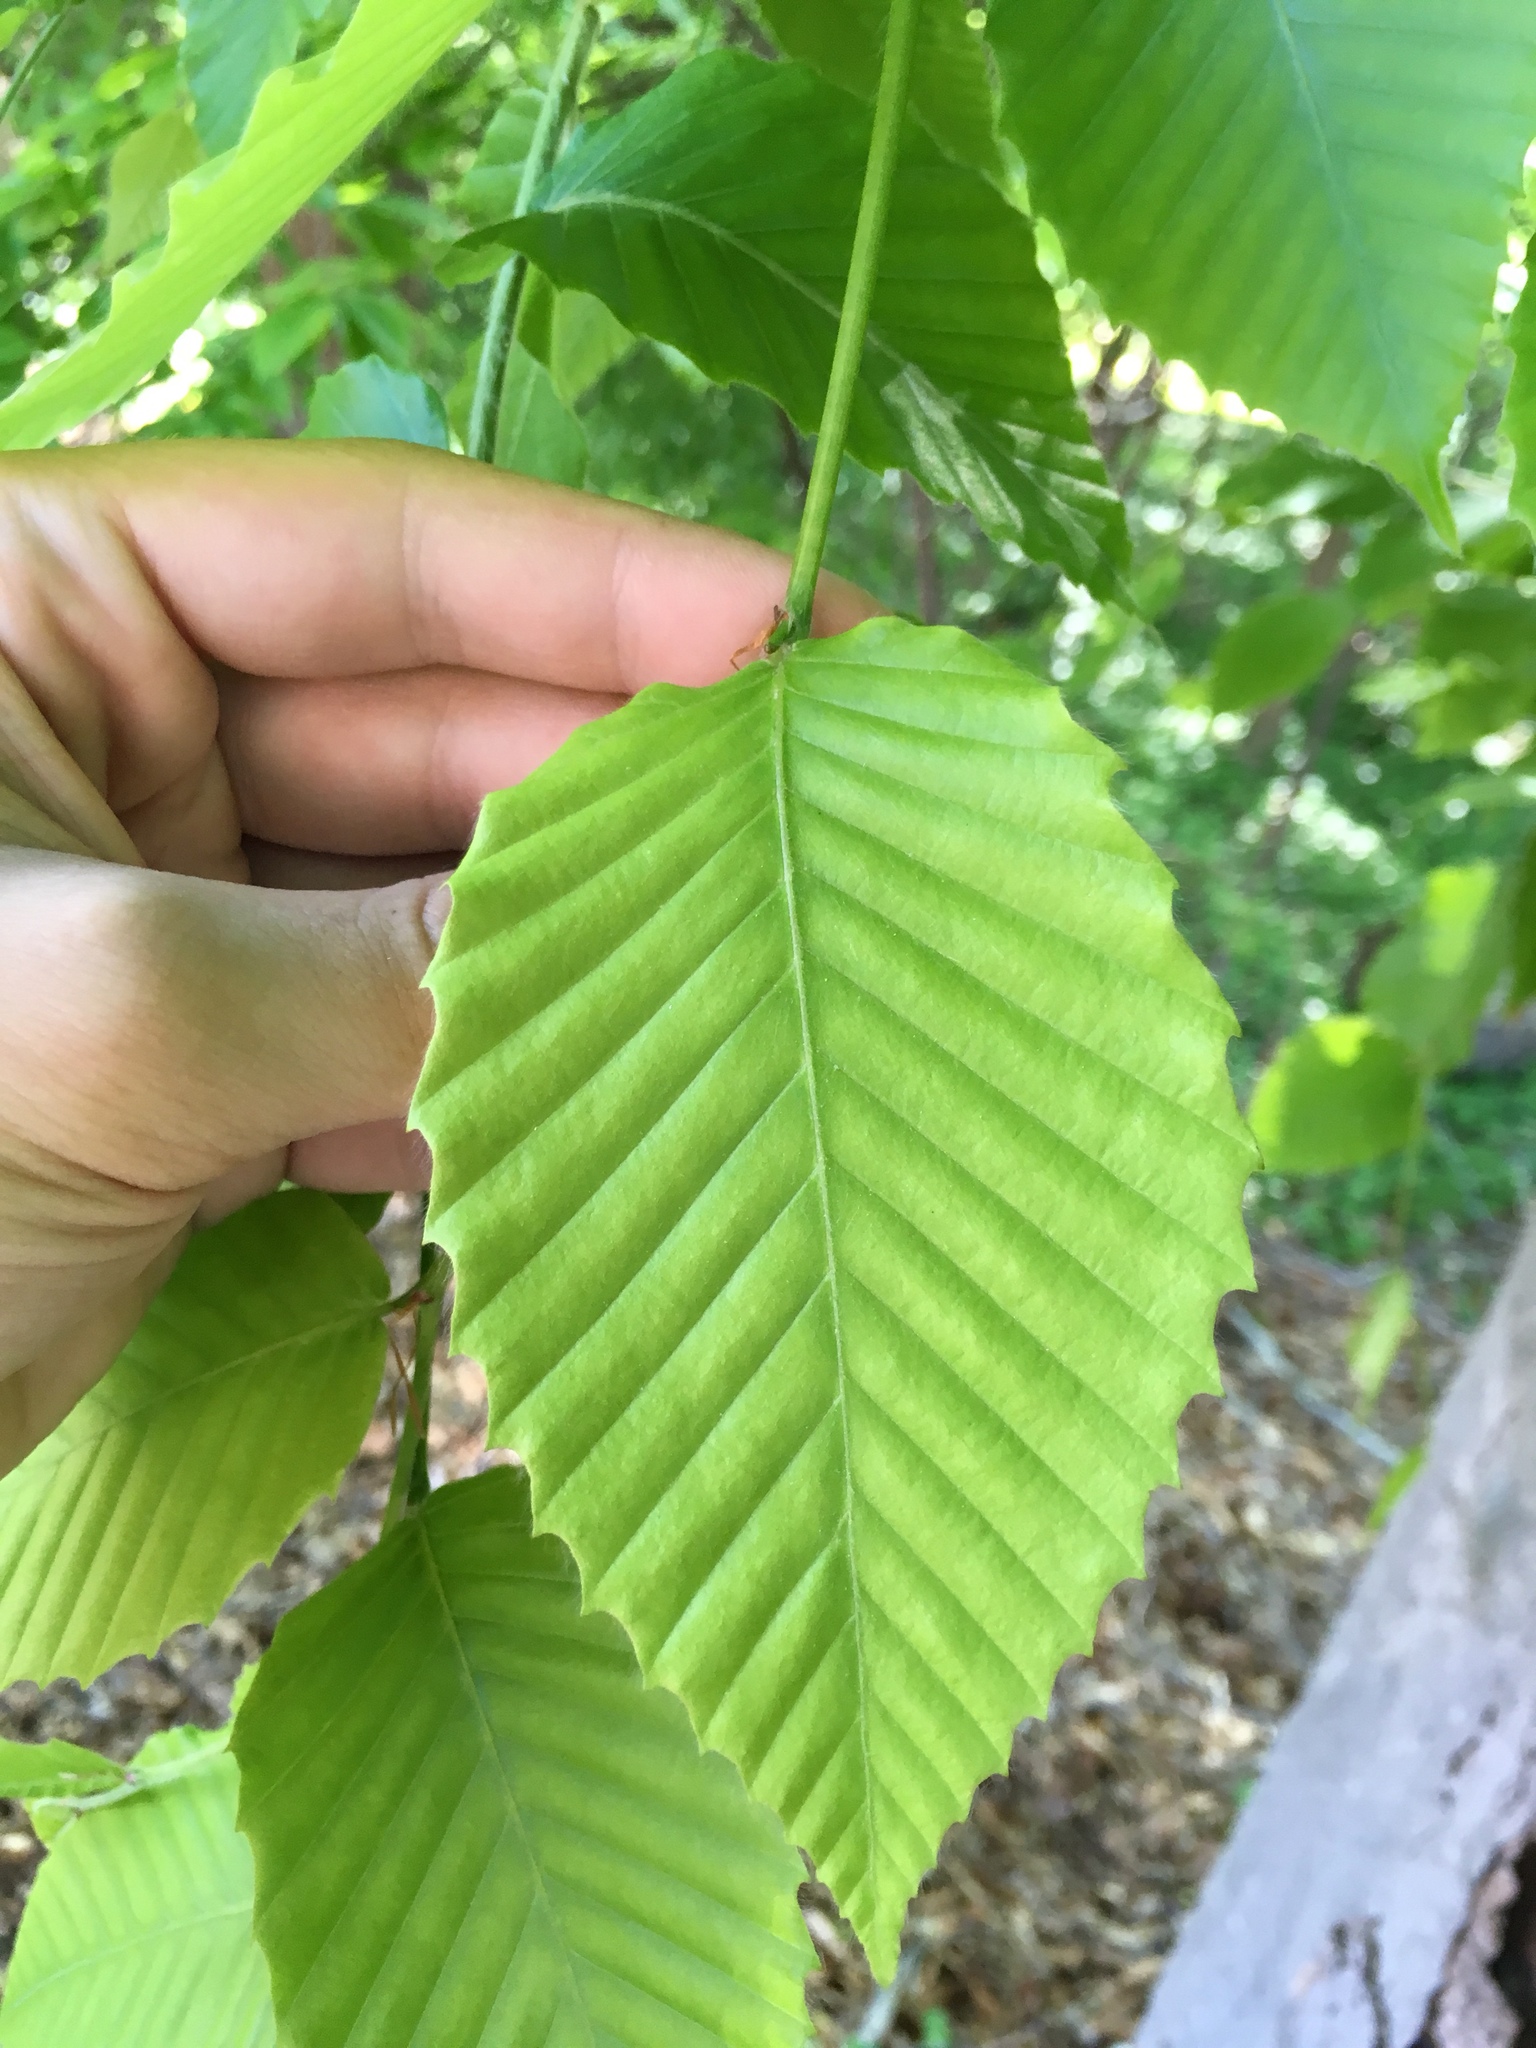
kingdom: Plantae
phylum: Tracheophyta
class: Magnoliopsida
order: Fagales
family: Fagaceae
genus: Fagus
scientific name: Fagus grandifolia
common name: American beech
